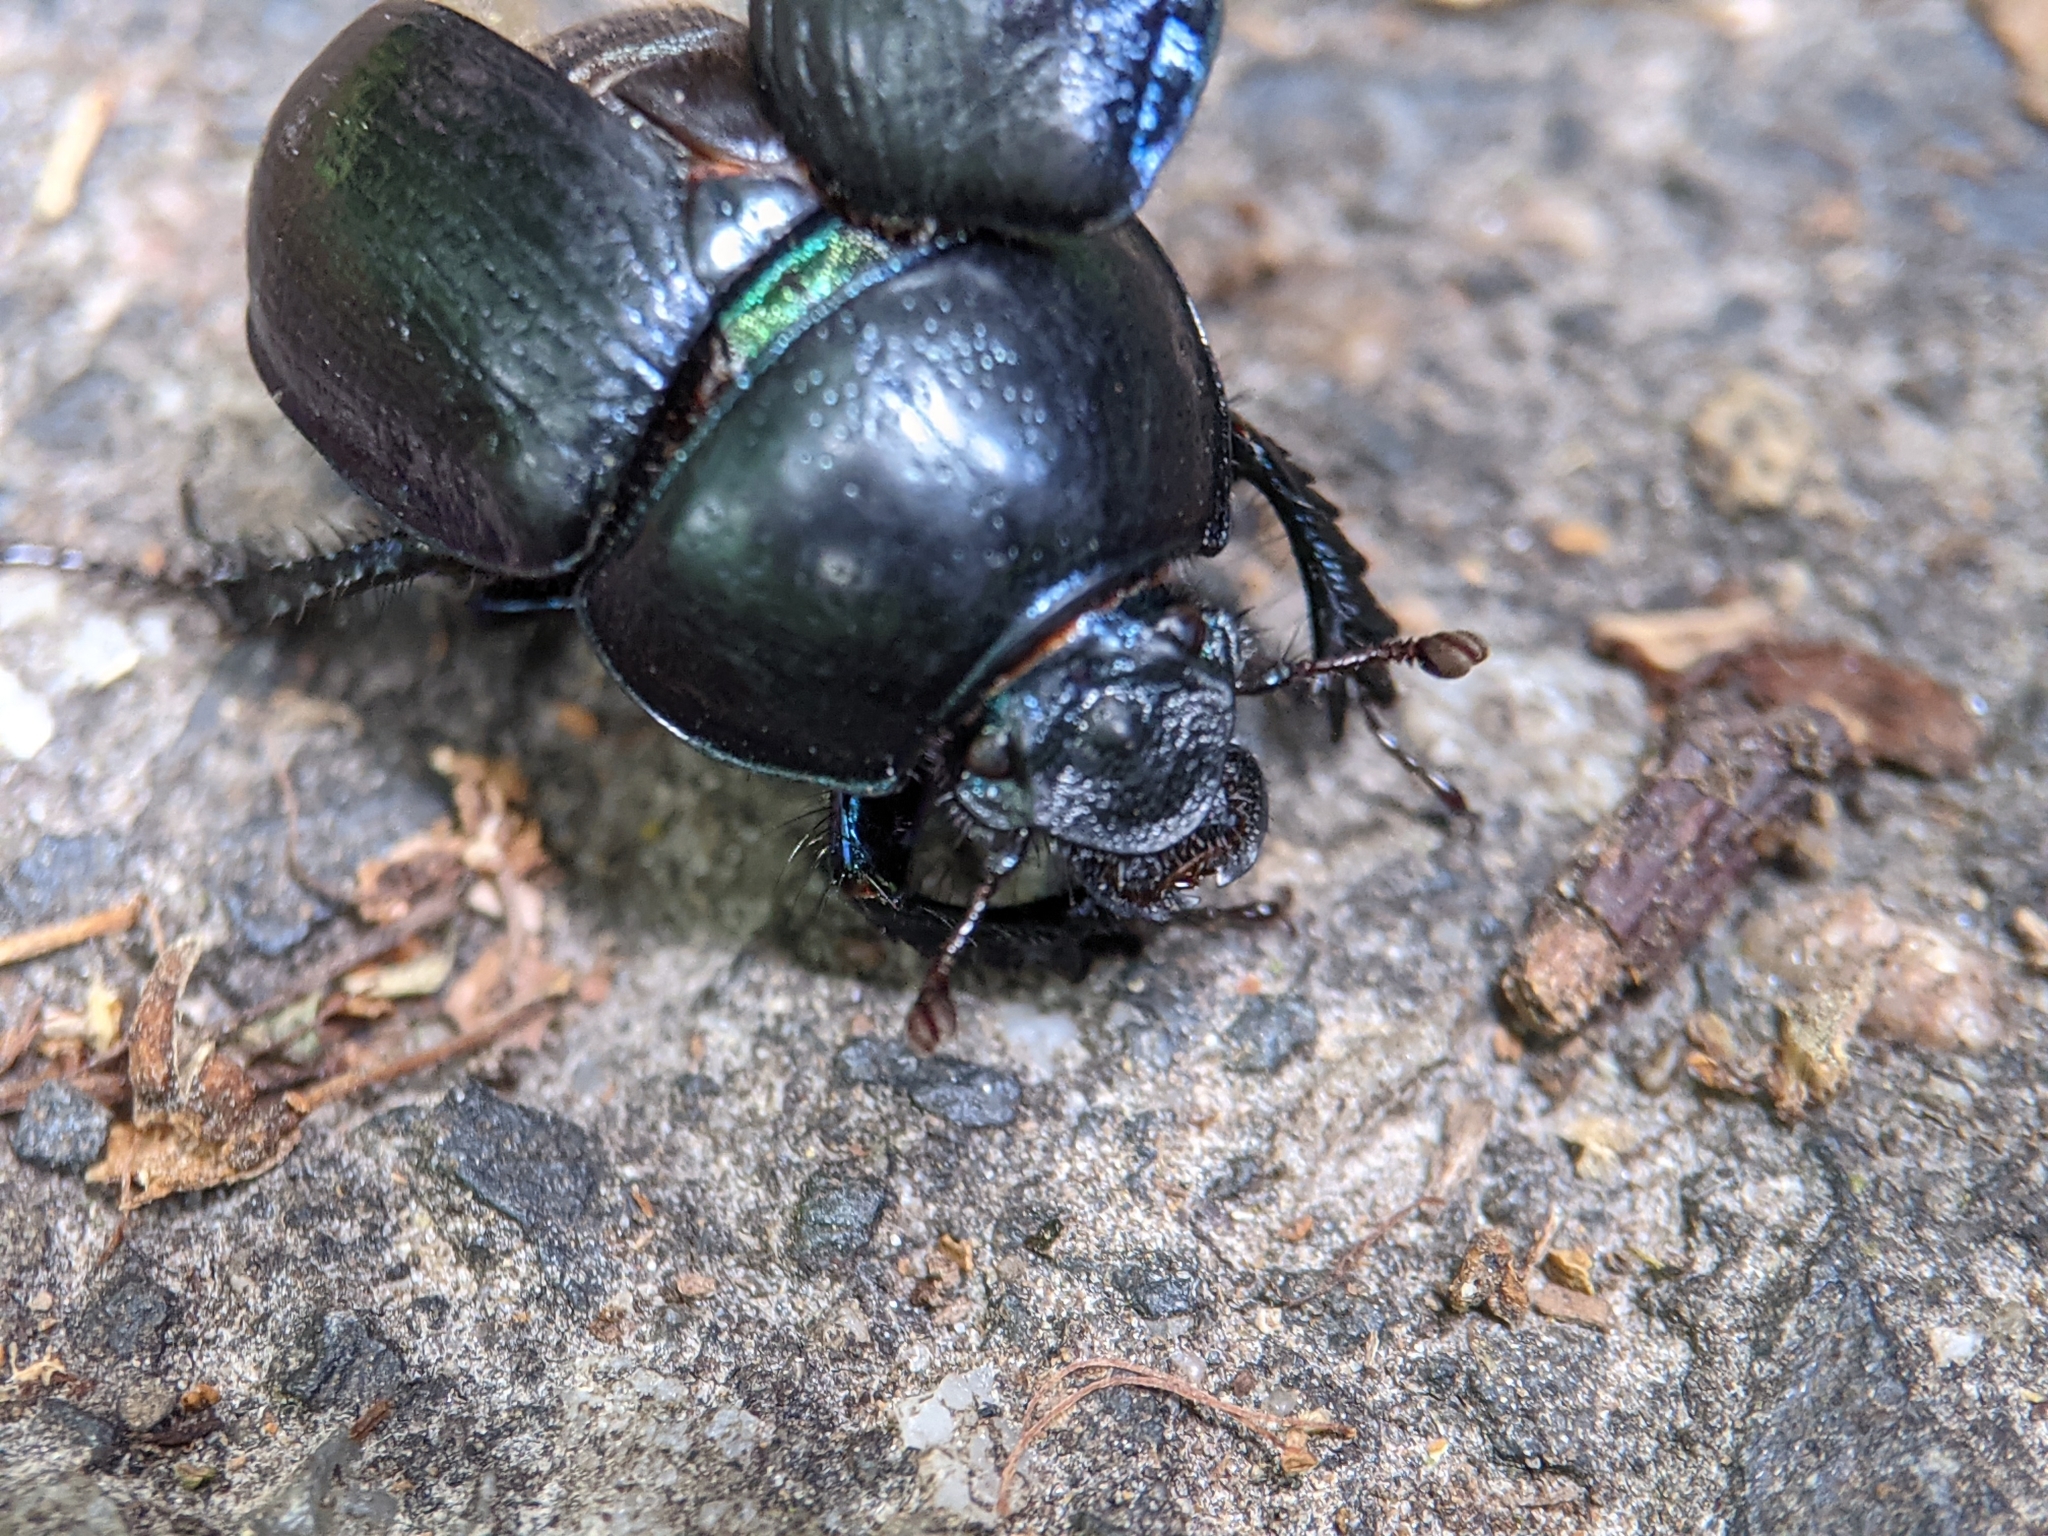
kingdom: Animalia
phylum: Arthropoda
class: Insecta
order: Coleoptera
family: Geotrupidae
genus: Anoplotrupes
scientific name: Anoplotrupes stercorosus
